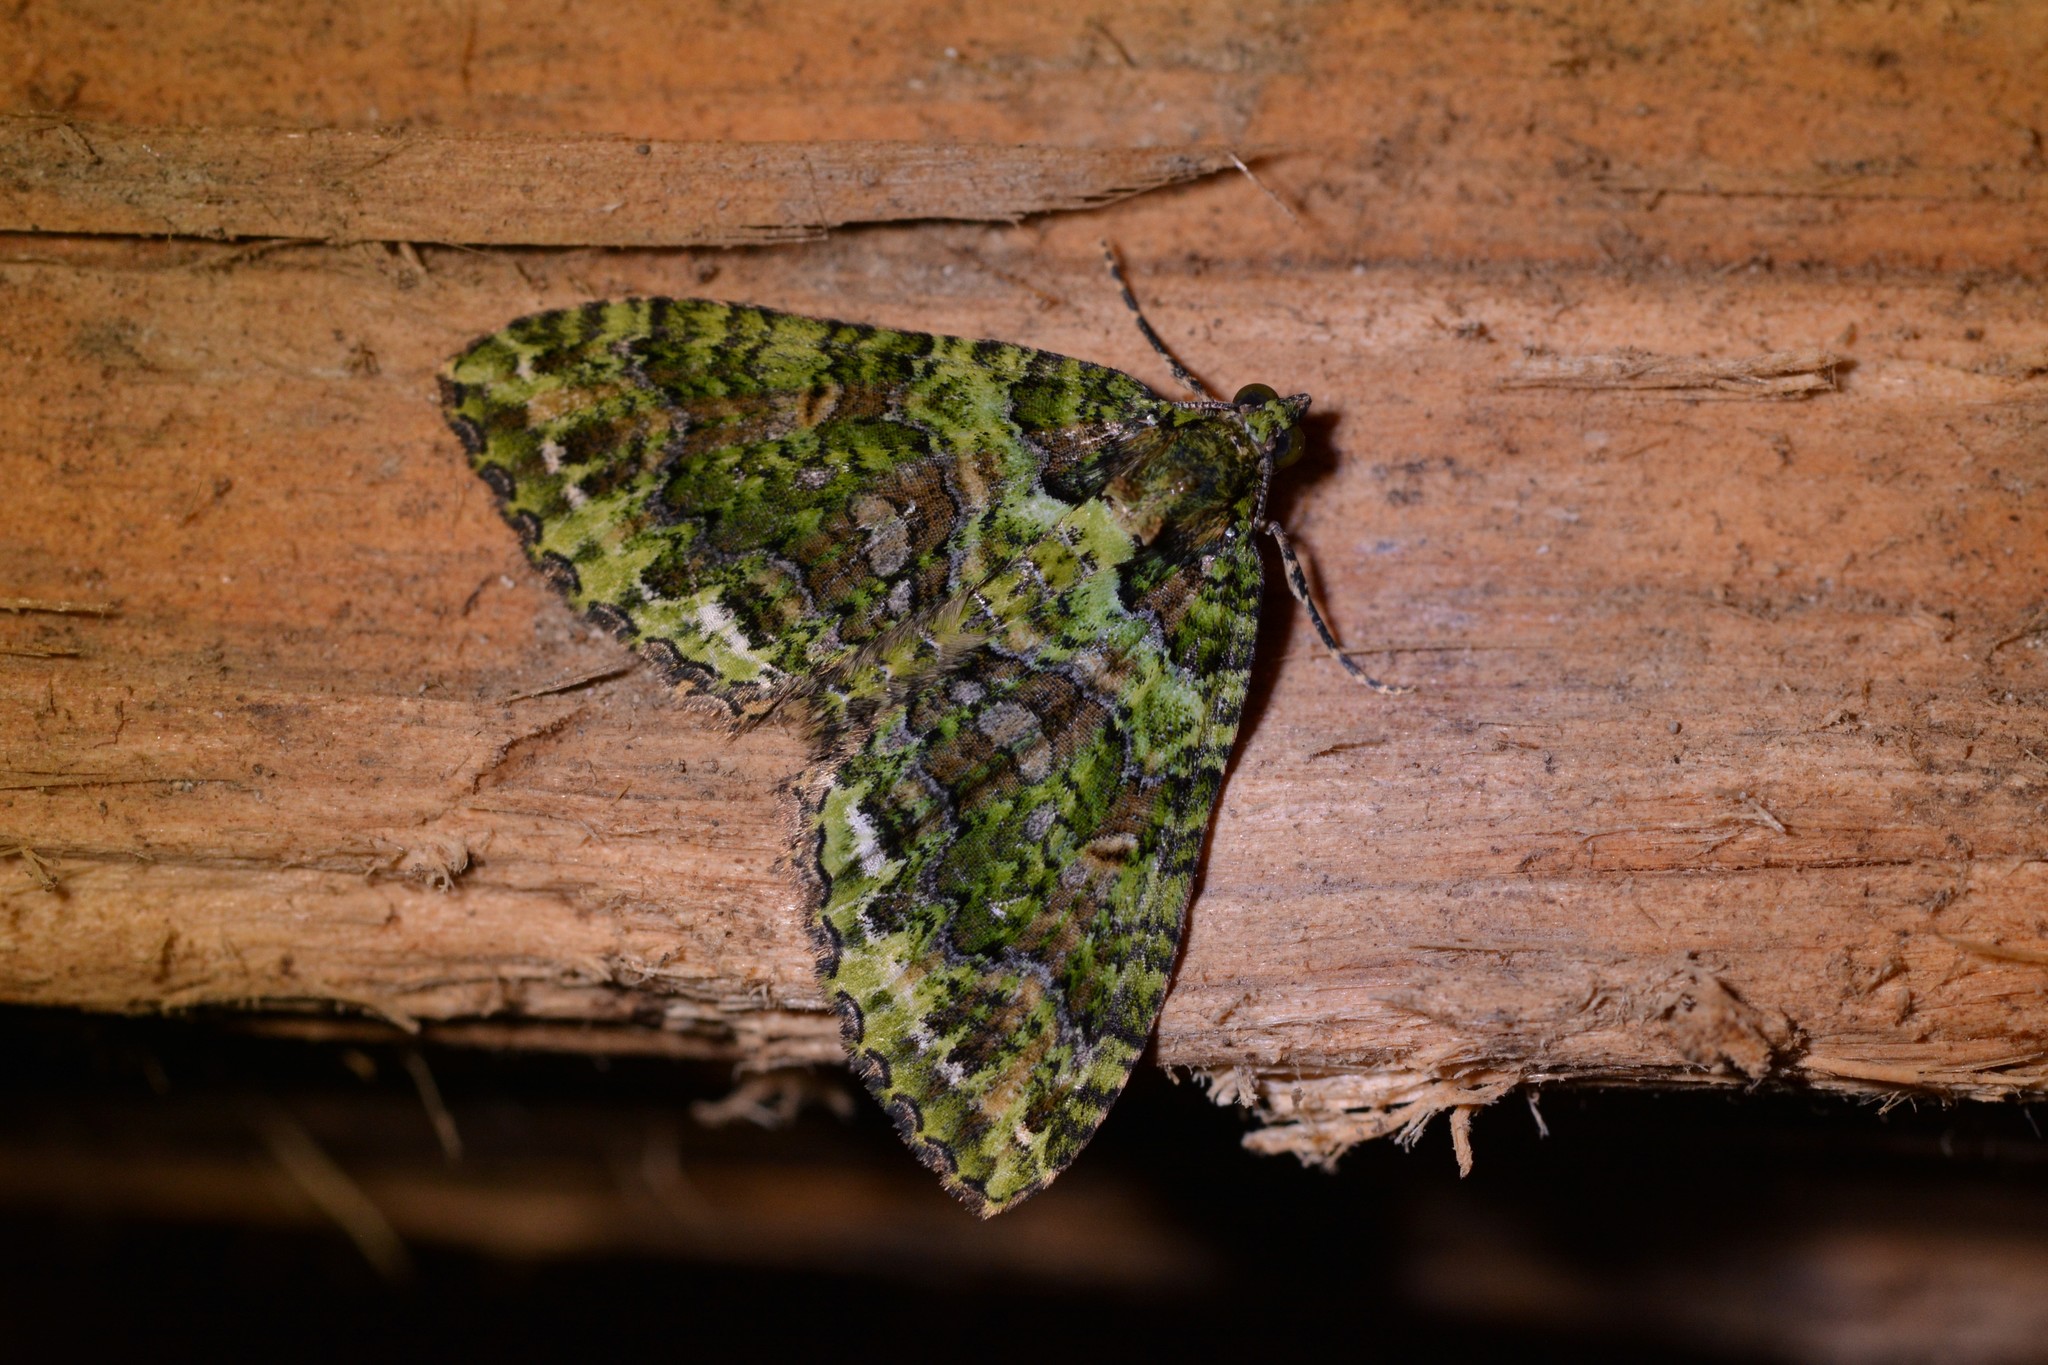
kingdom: Animalia
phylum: Arthropoda
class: Insecta
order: Lepidoptera
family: Geometridae
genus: Austrocidaria
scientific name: Austrocidaria similata
